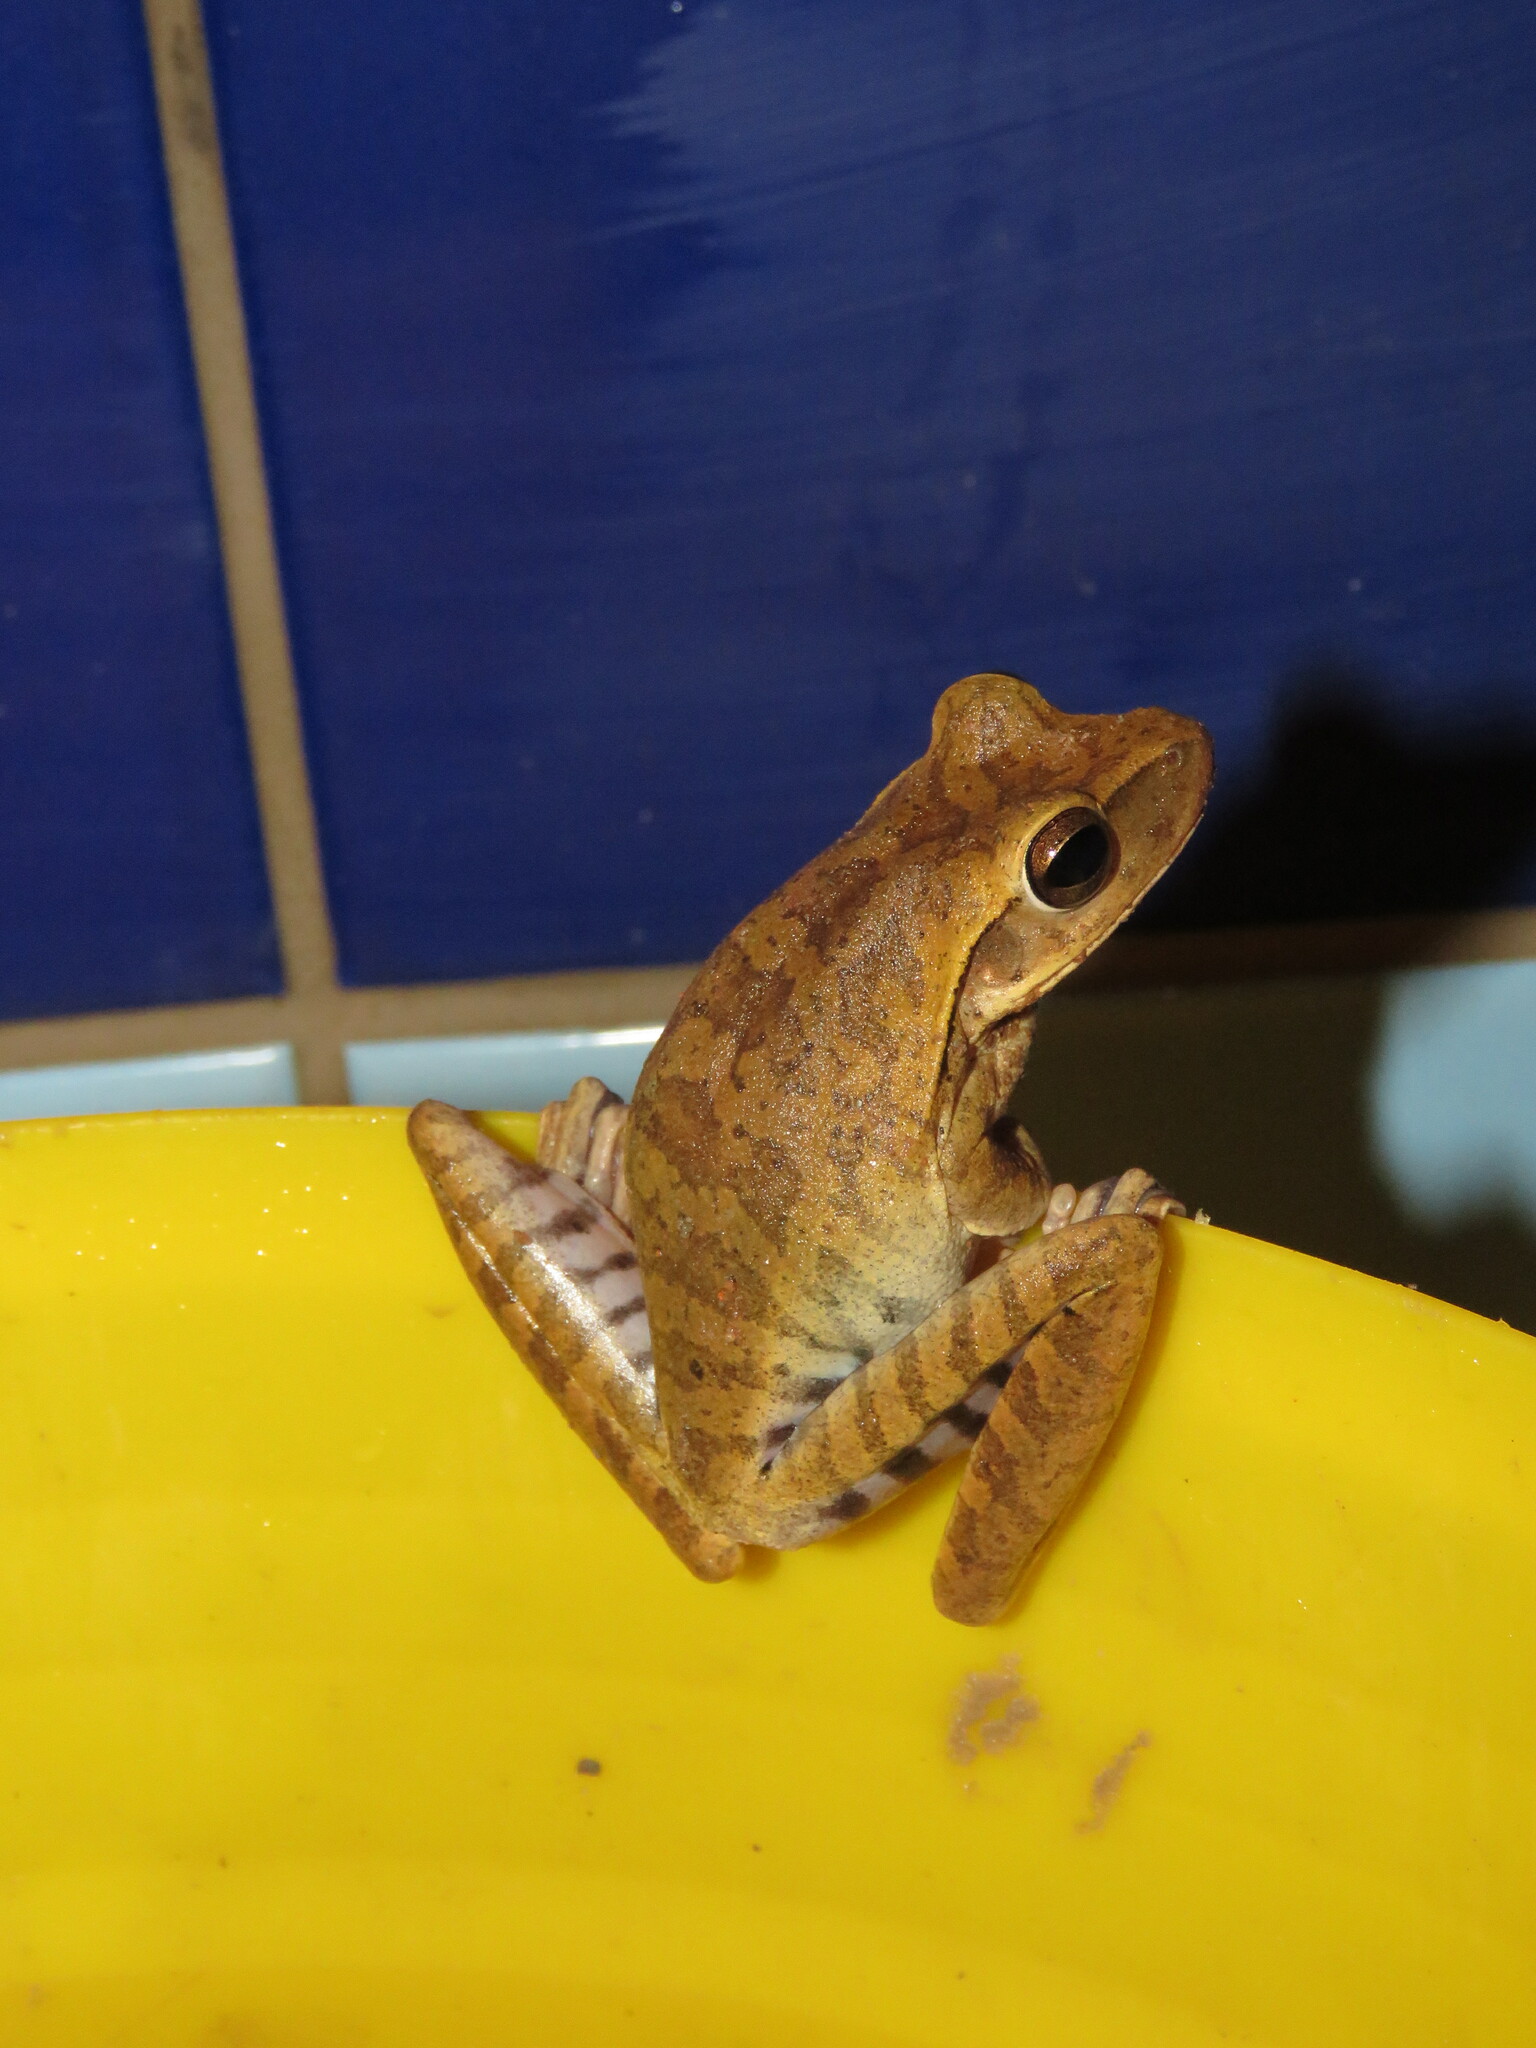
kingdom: Animalia
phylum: Chordata
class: Amphibia
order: Anura
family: Hylidae
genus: Boana
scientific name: Boana raniceps
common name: Chaco treefrog
